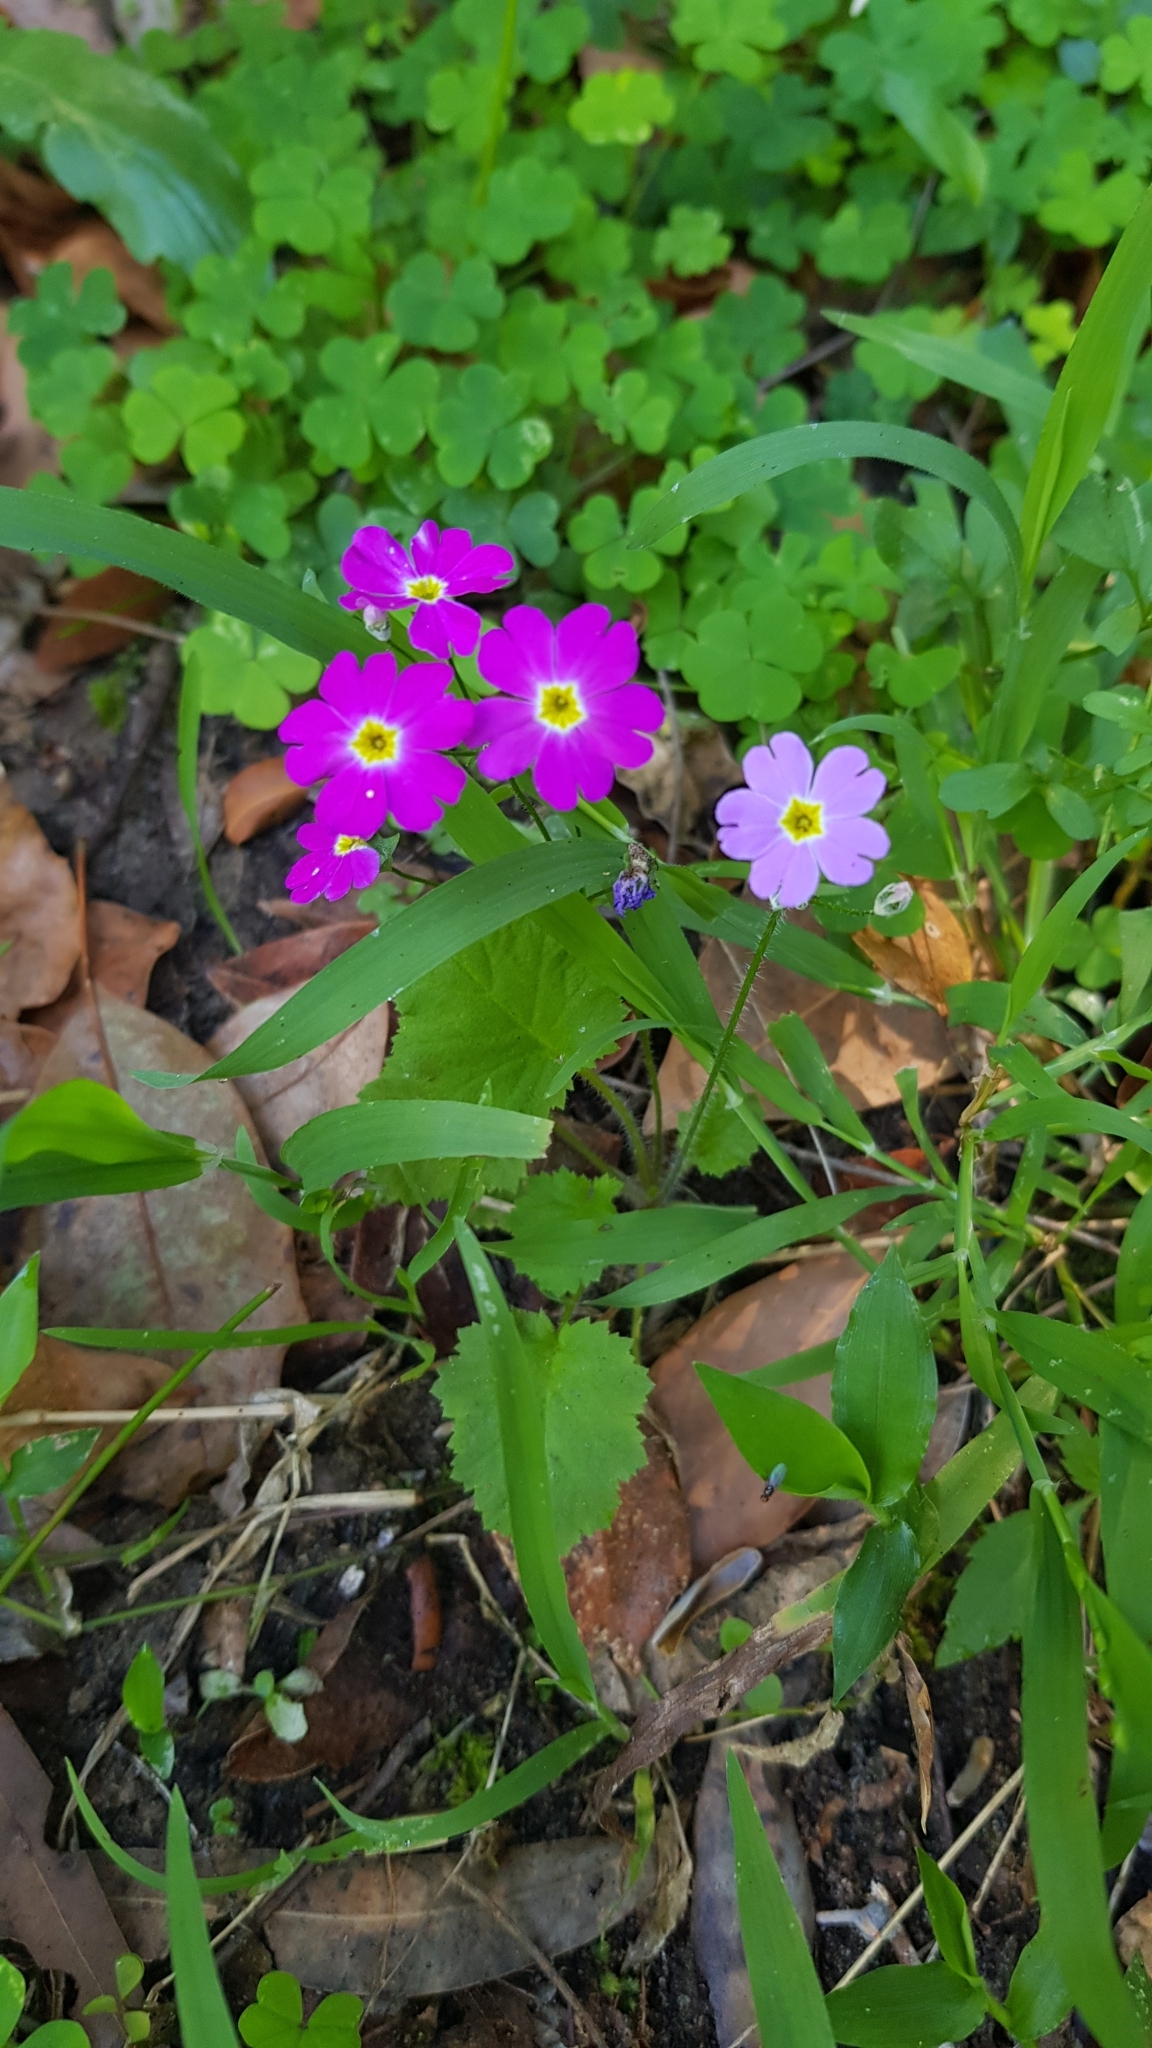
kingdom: Plantae
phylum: Tracheophyta
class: Magnoliopsida
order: Ericales
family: Primulaceae
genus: Primula
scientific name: Primula malacoides
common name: Baby primrose
